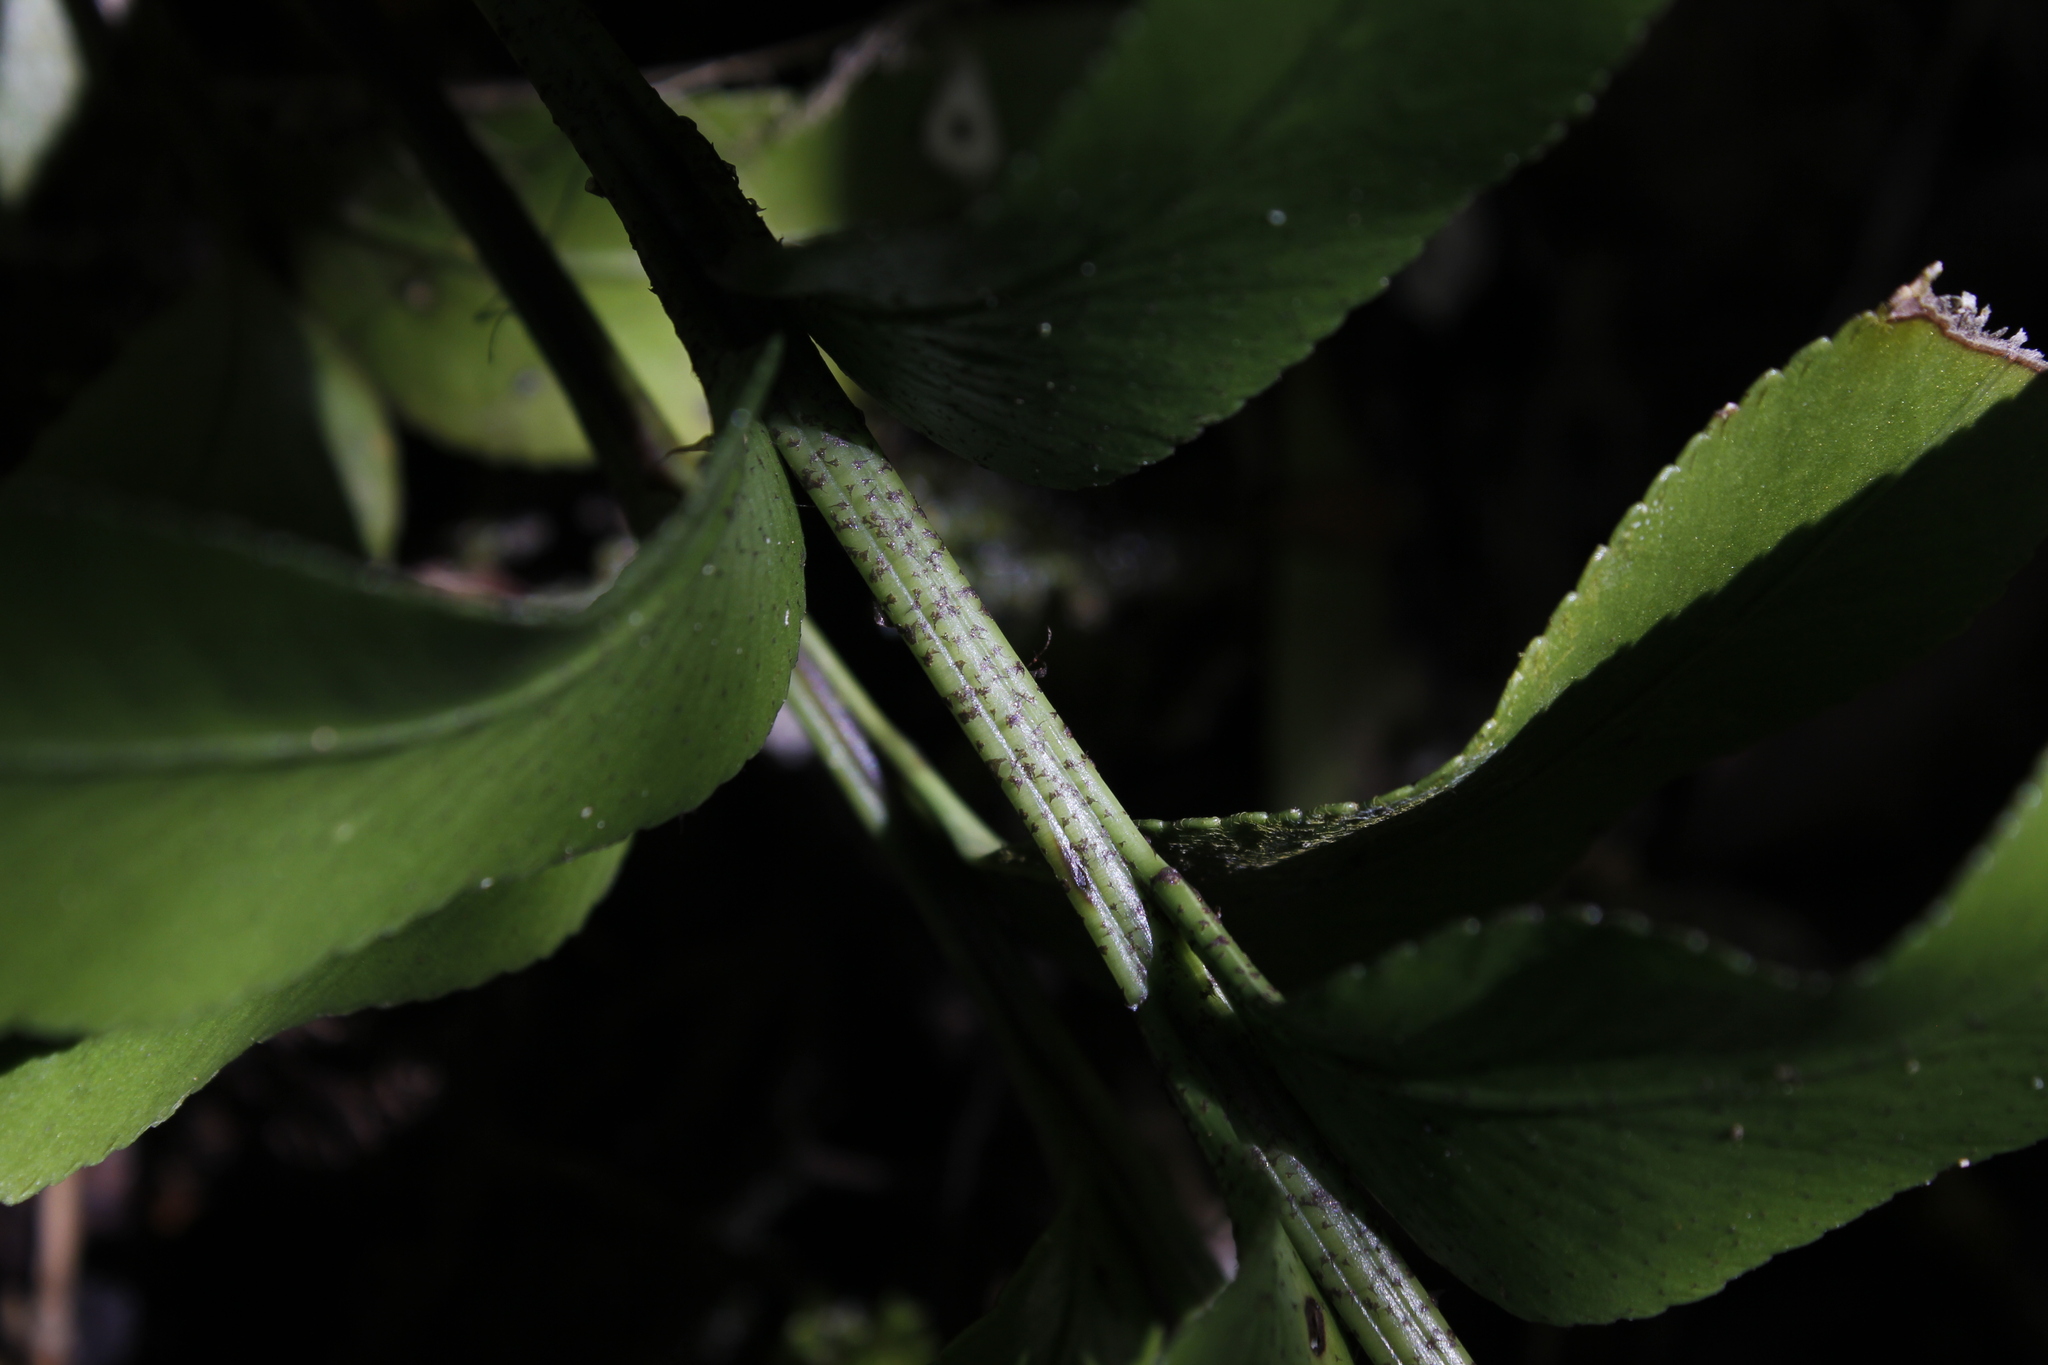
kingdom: Plantae
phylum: Tracheophyta
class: Polypodiopsida
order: Polypodiales
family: Aspleniaceae
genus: Asplenium
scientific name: Asplenium lepidotum
